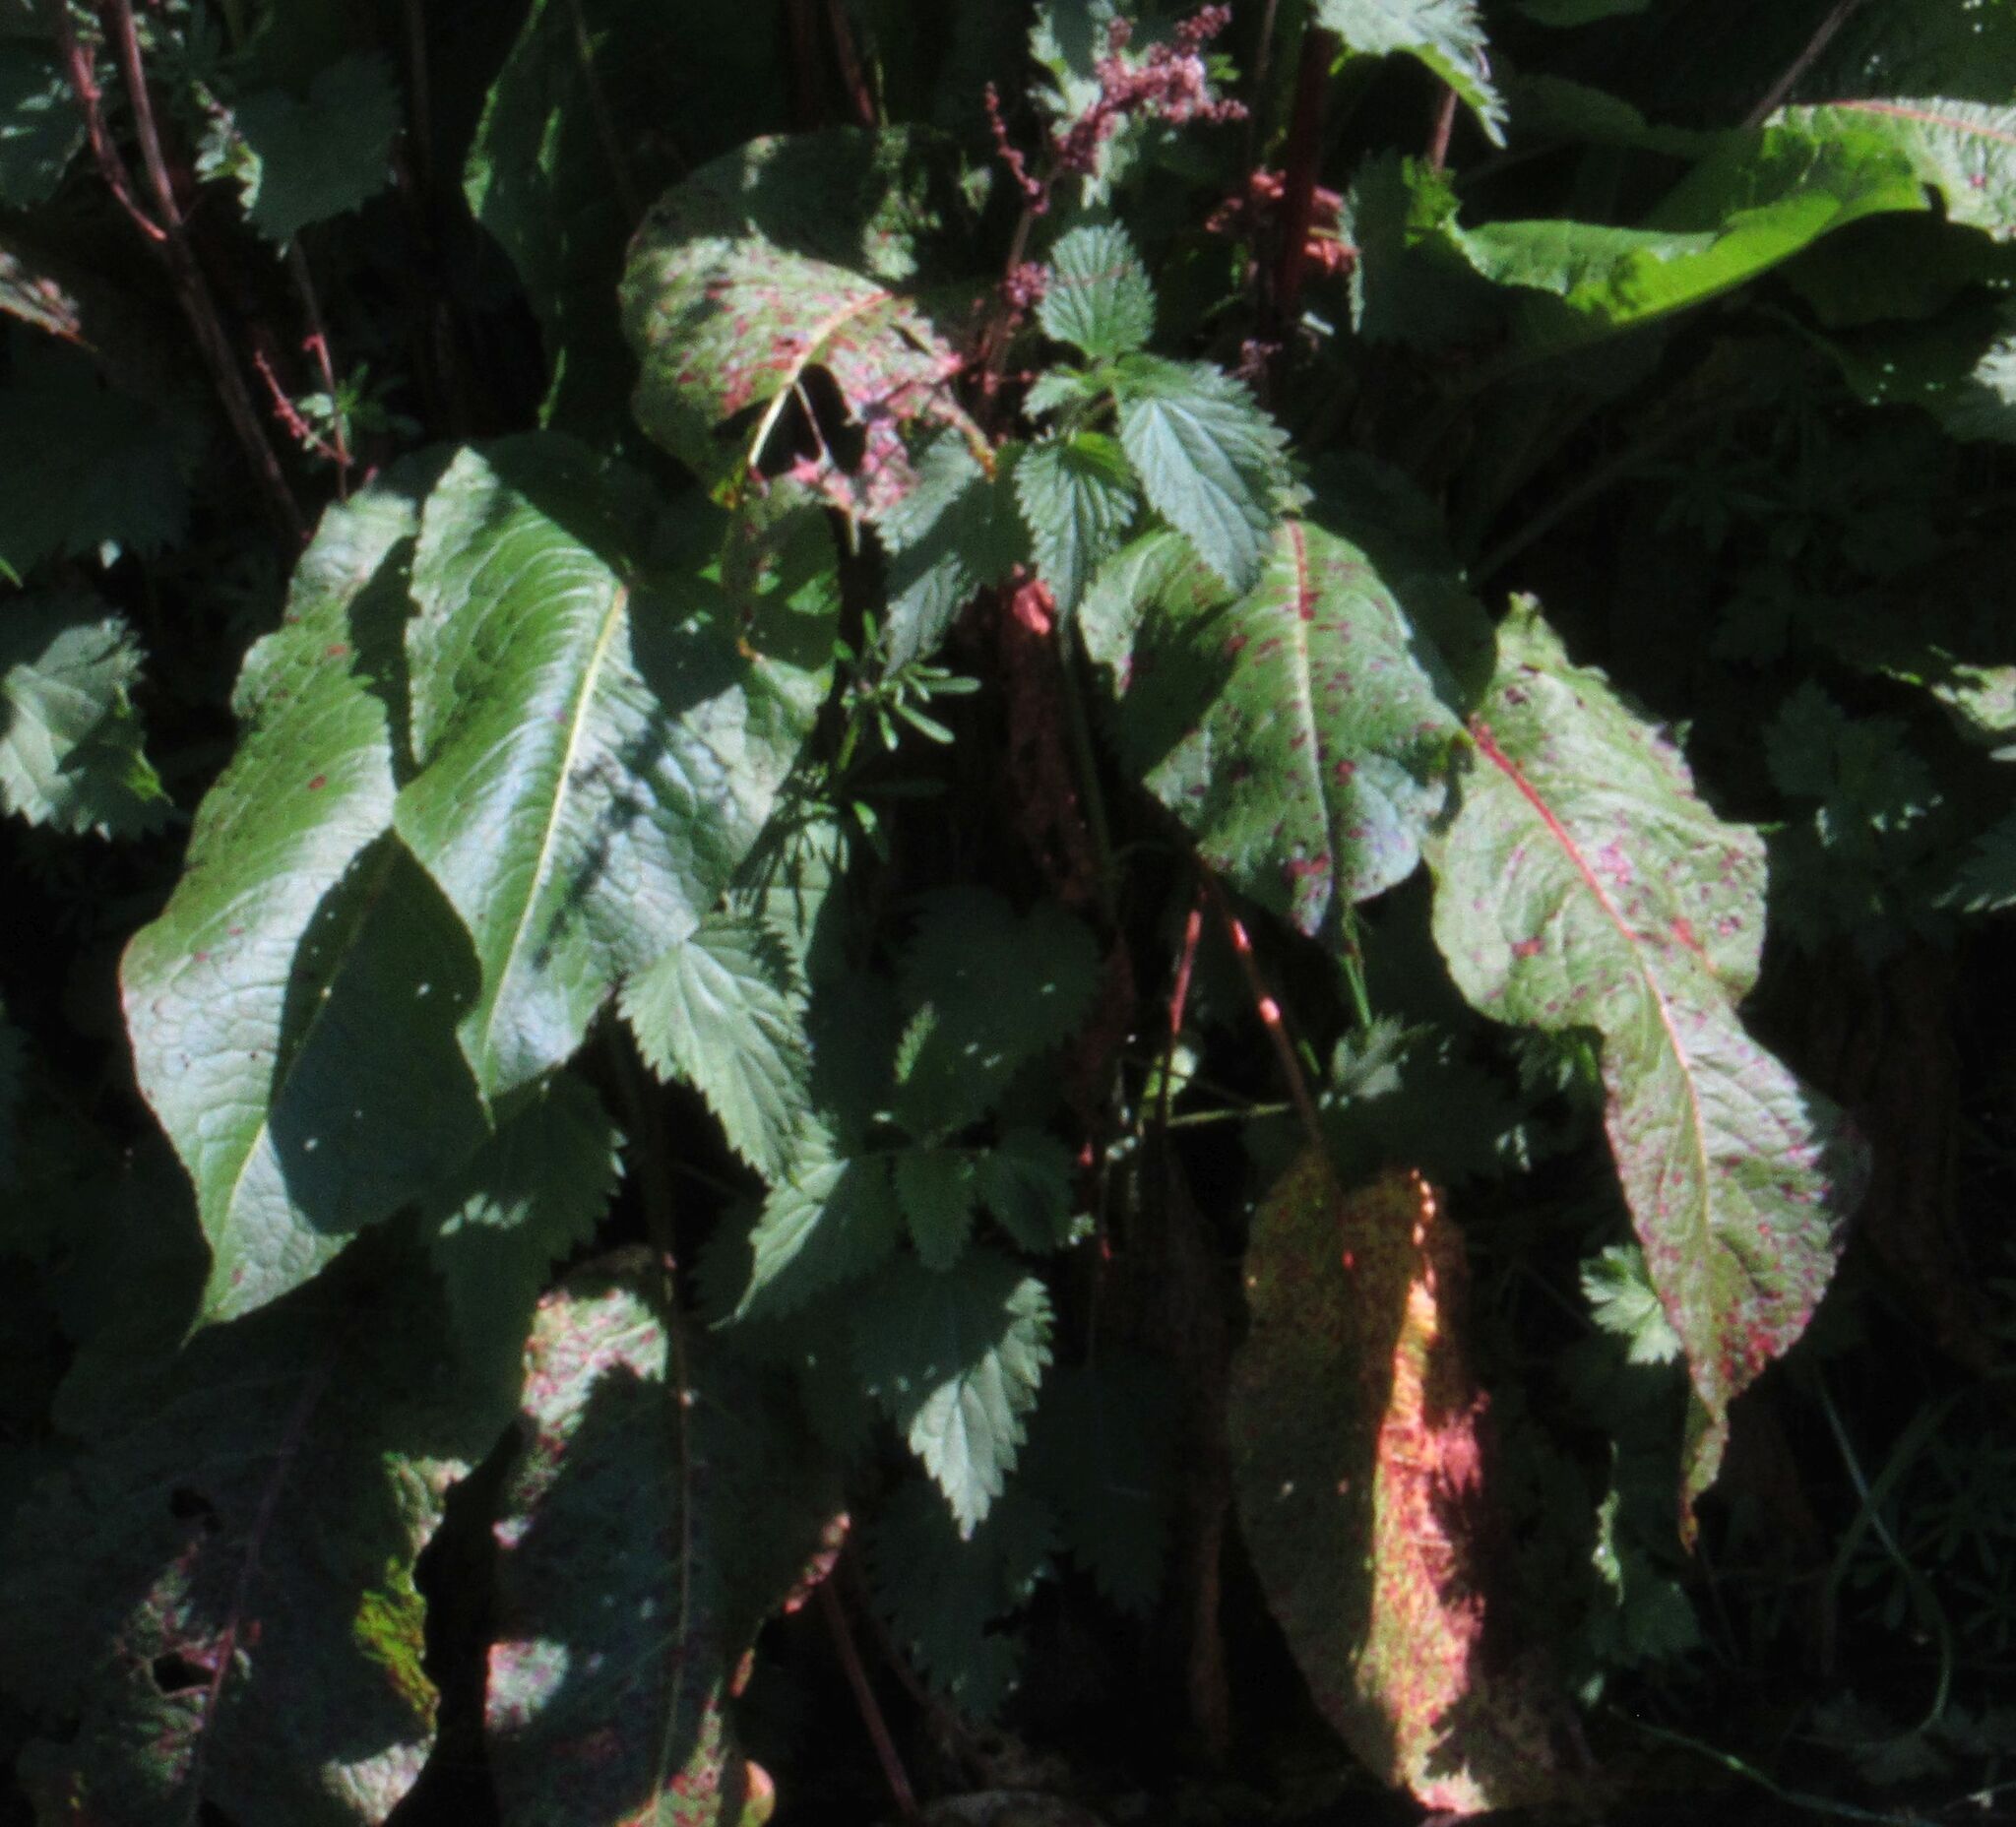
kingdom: Plantae
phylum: Tracheophyta
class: Magnoliopsida
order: Caryophyllales
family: Polygonaceae
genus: Rumex
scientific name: Rumex obtusifolius
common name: Bitter dock
